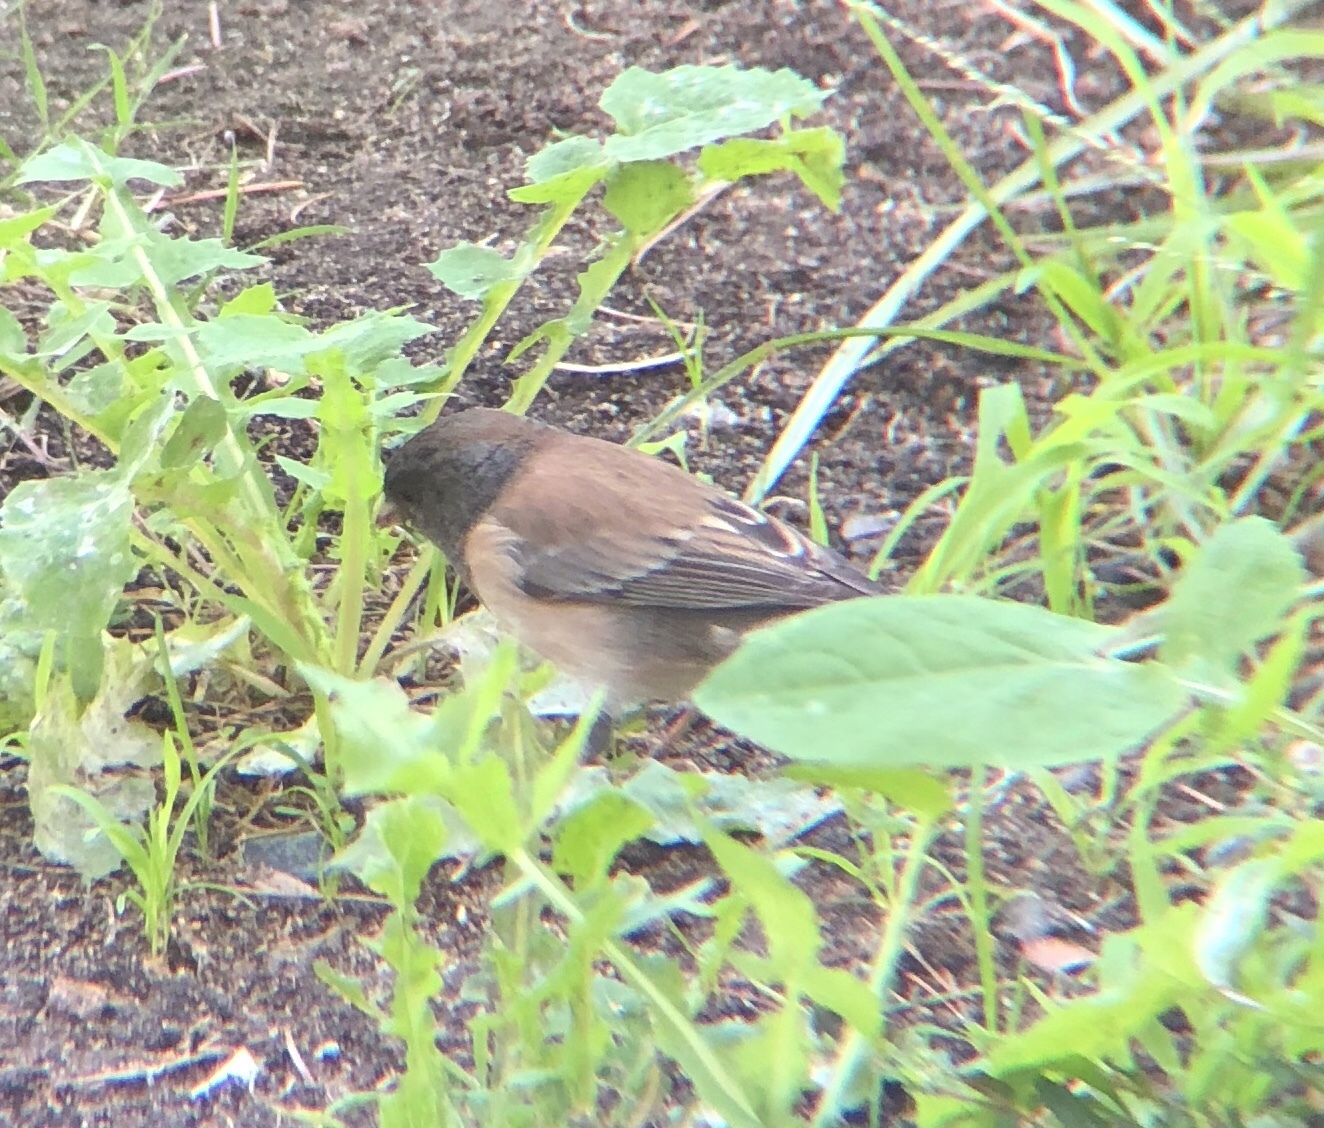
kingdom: Animalia
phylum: Chordata
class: Aves
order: Passeriformes
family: Passerellidae
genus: Junco
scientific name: Junco hyemalis
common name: Dark-eyed junco
